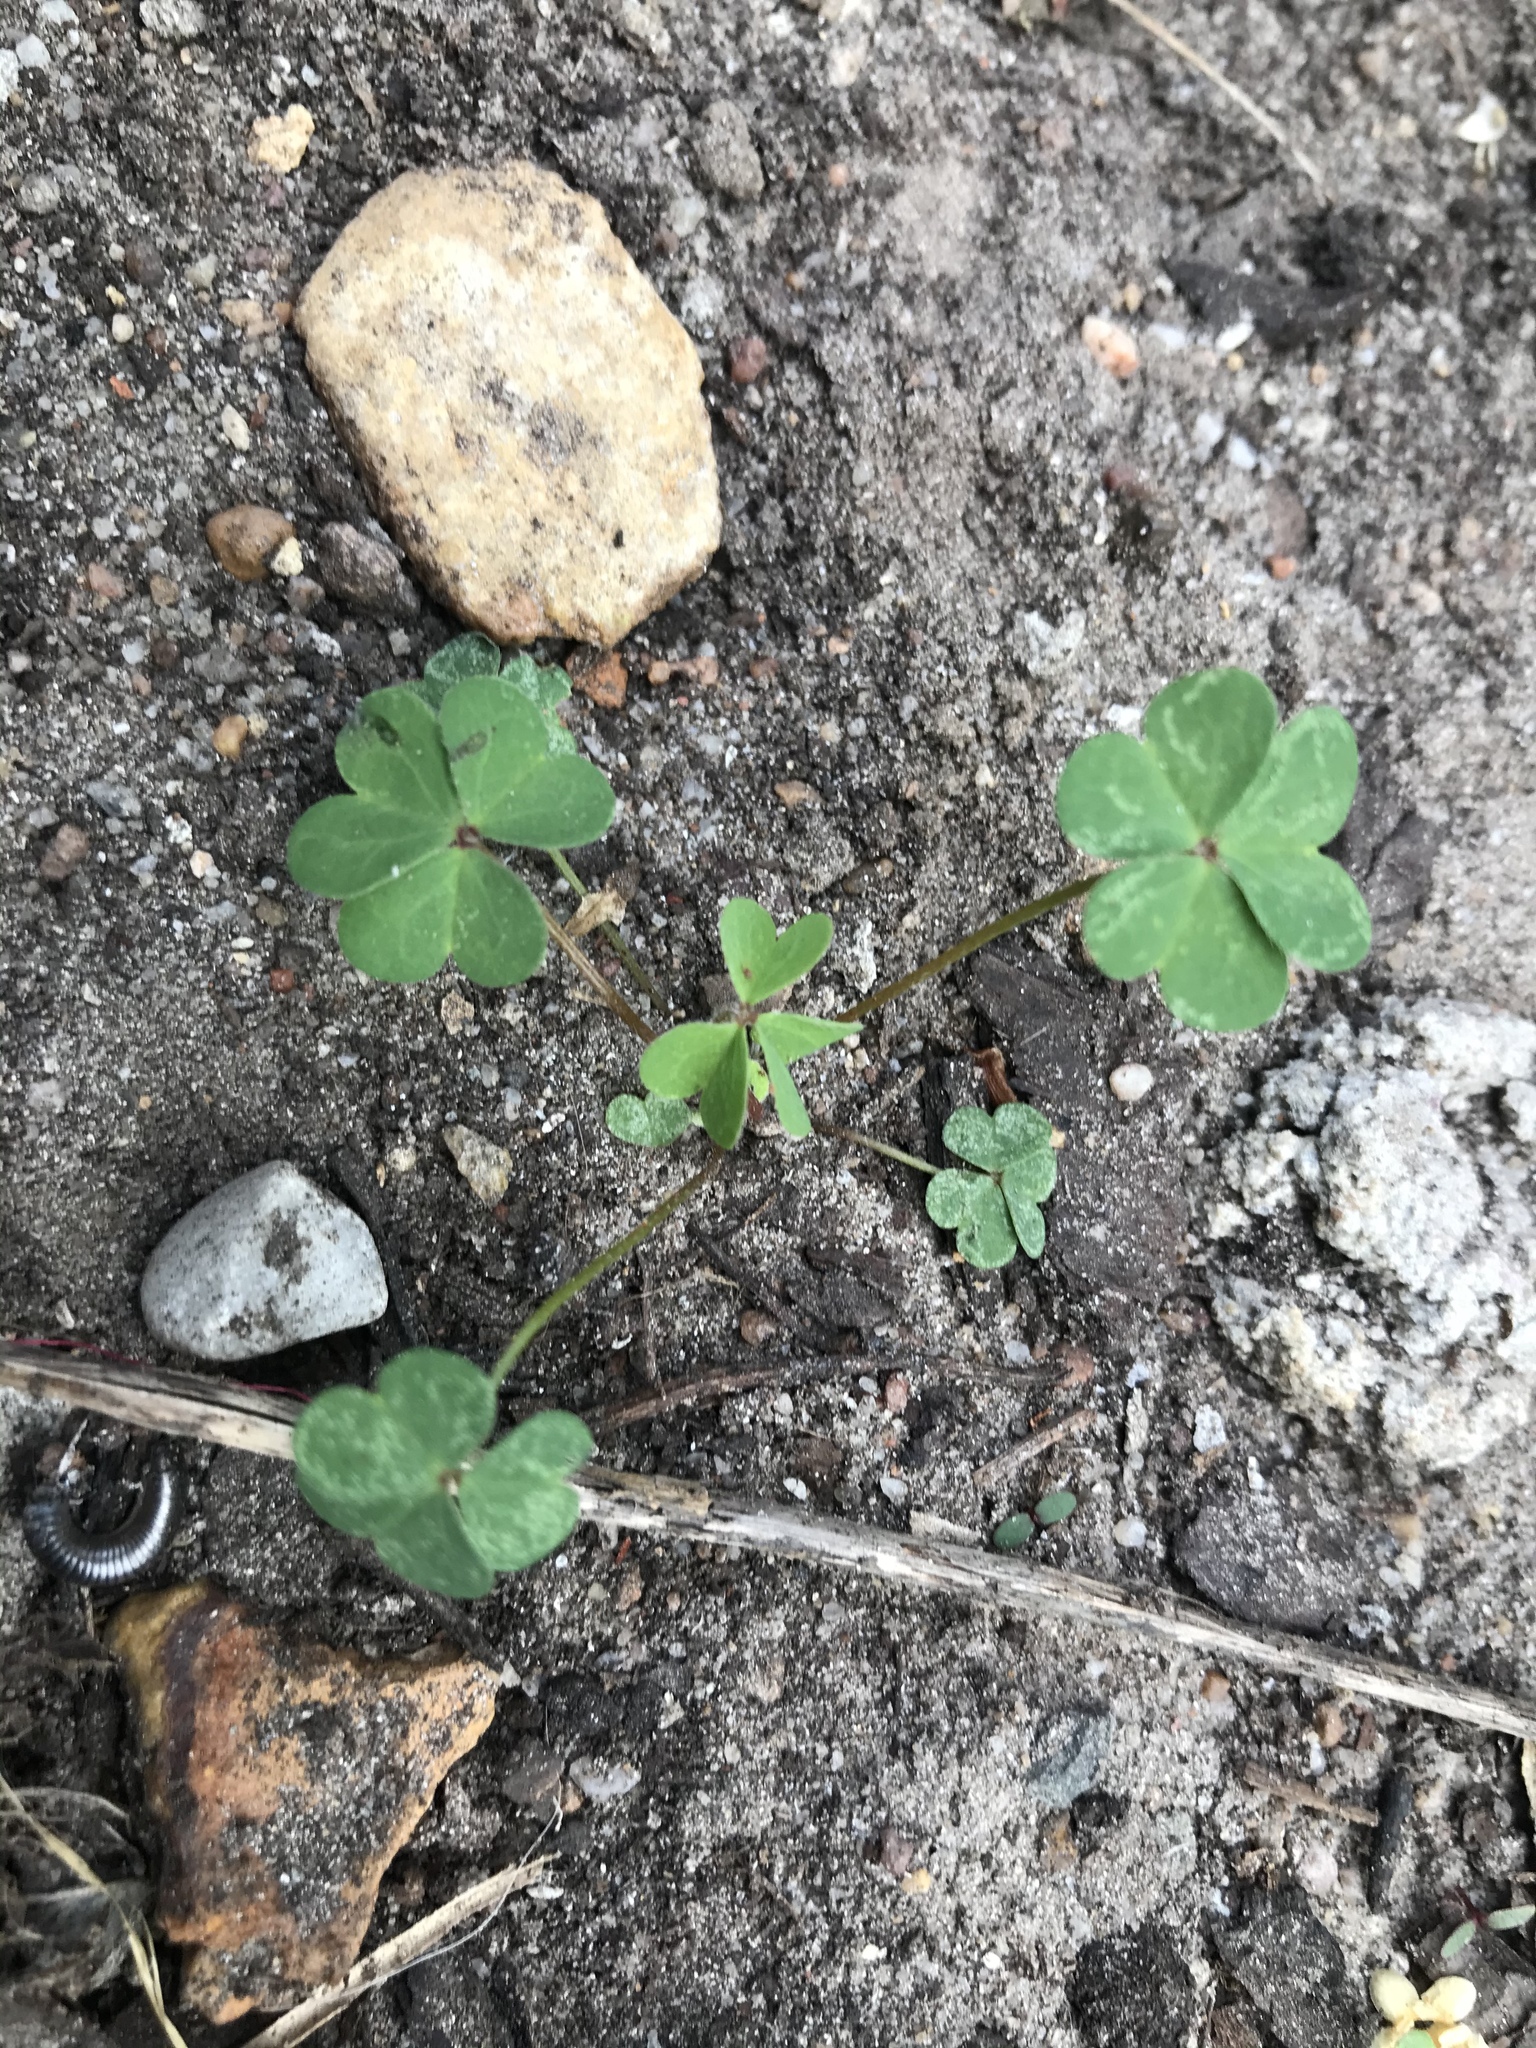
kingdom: Plantae
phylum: Tracheophyta
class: Magnoliopsida
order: Oxalidales
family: Oxalidaceae
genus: Oxalis
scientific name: Oxalis corniculata
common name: Procumbent yellow-sorrel
